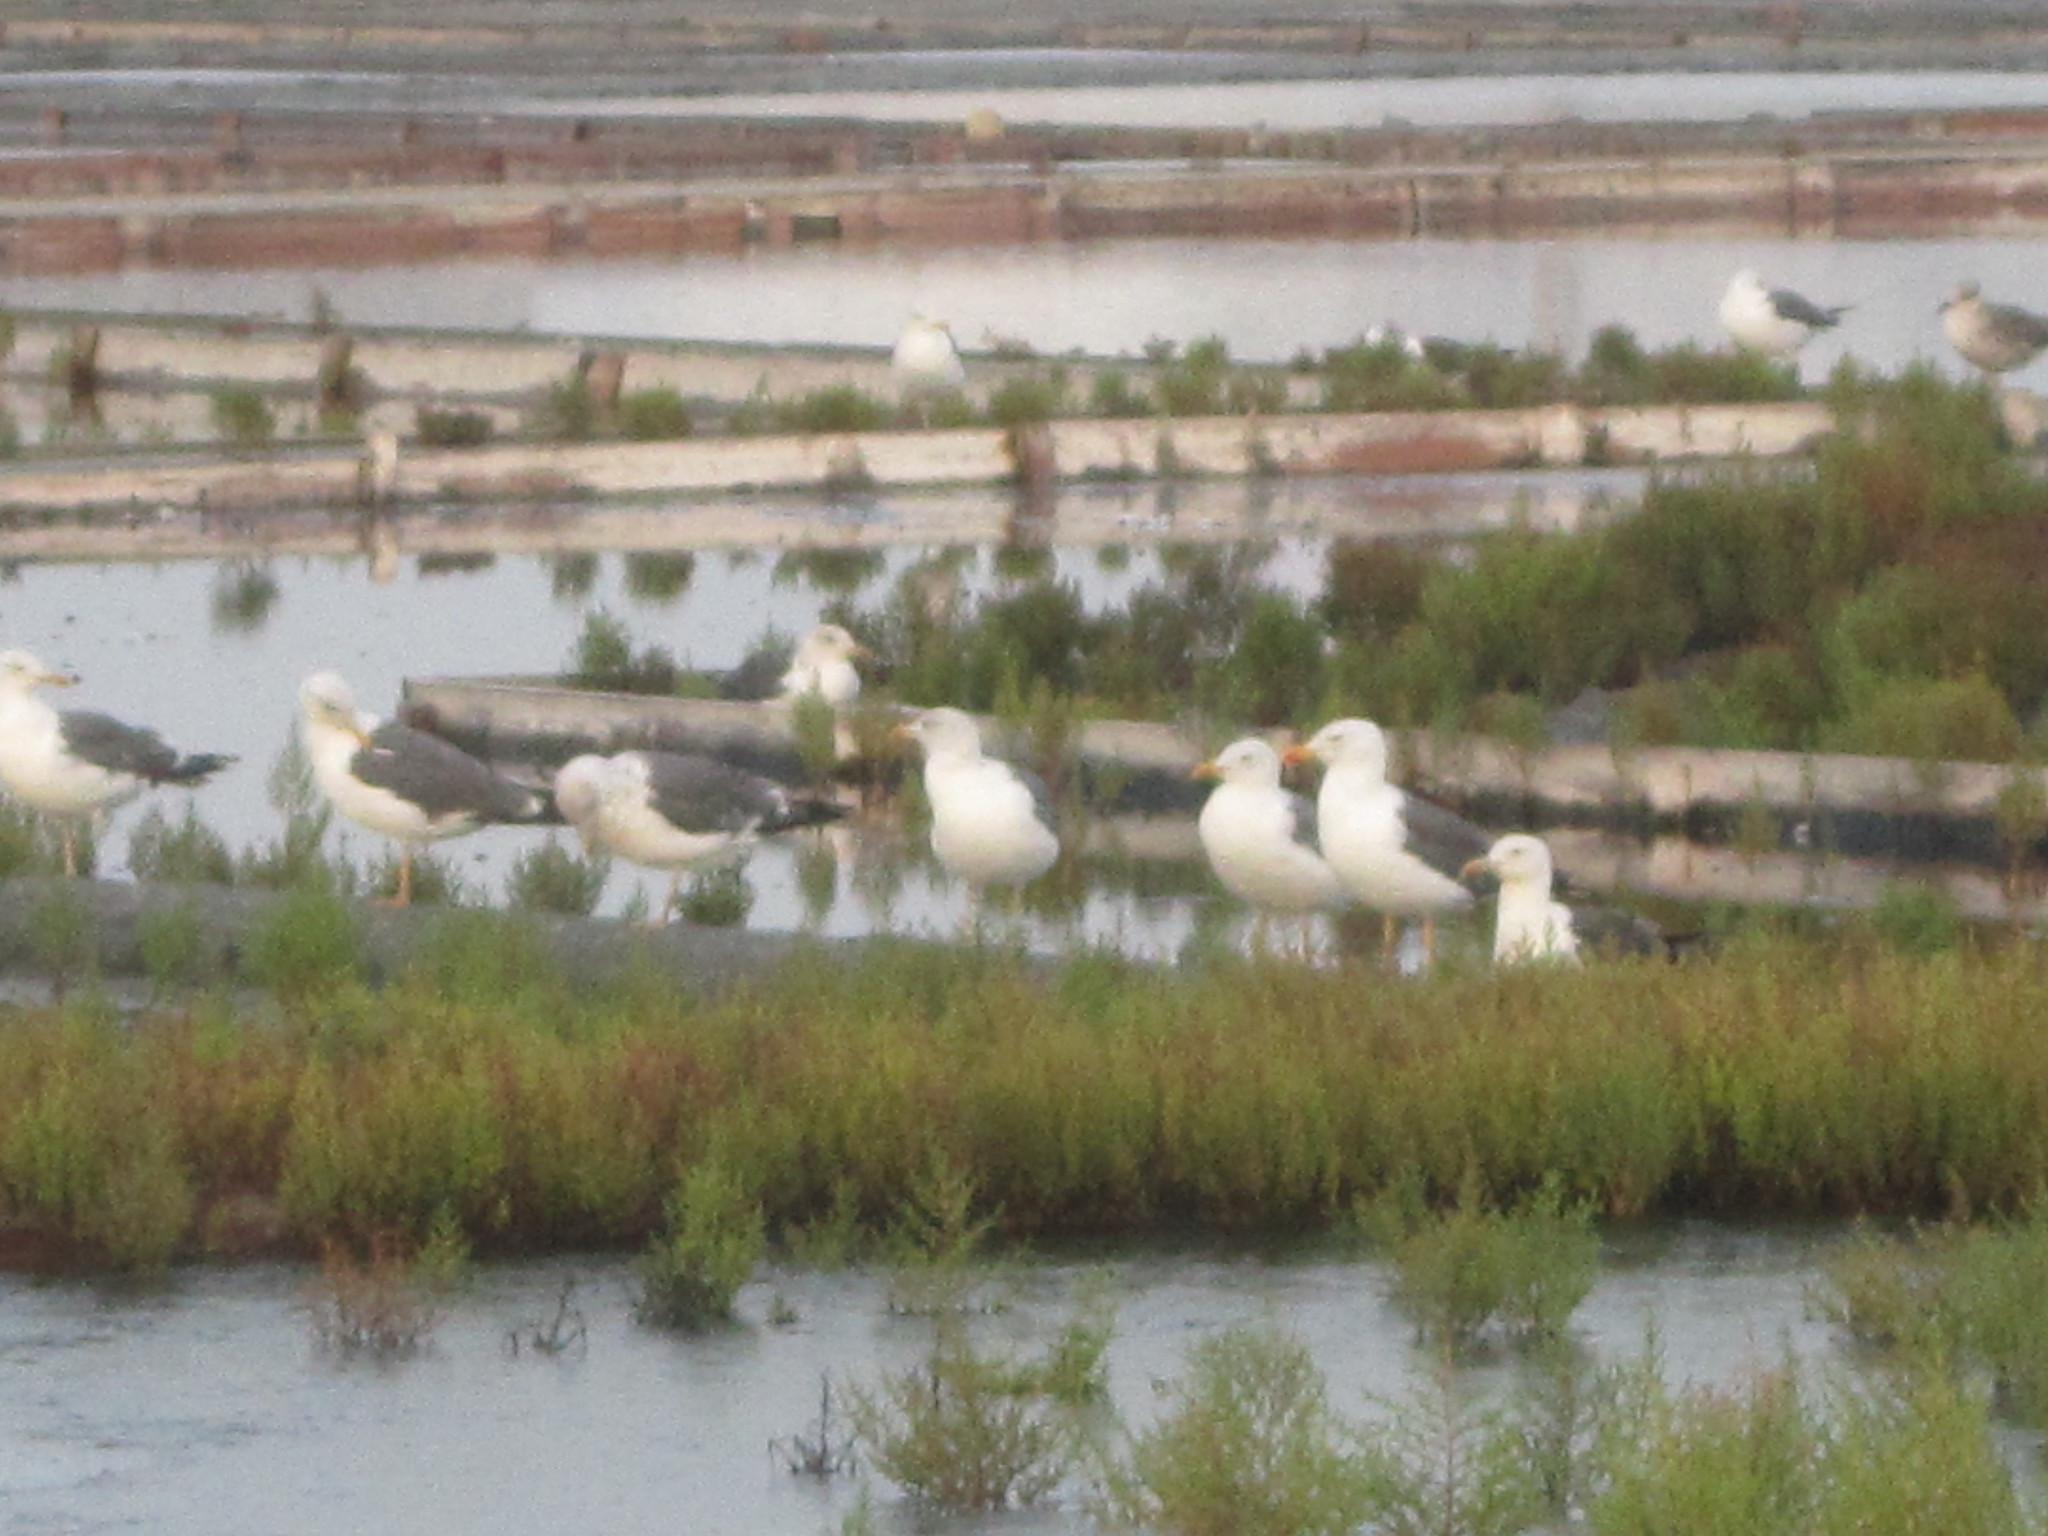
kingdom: Animalia
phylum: Chordata
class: Aves
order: Charadriiformes
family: Laridae
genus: Larus
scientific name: Larus fuscus
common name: Lesser black-backed gull
